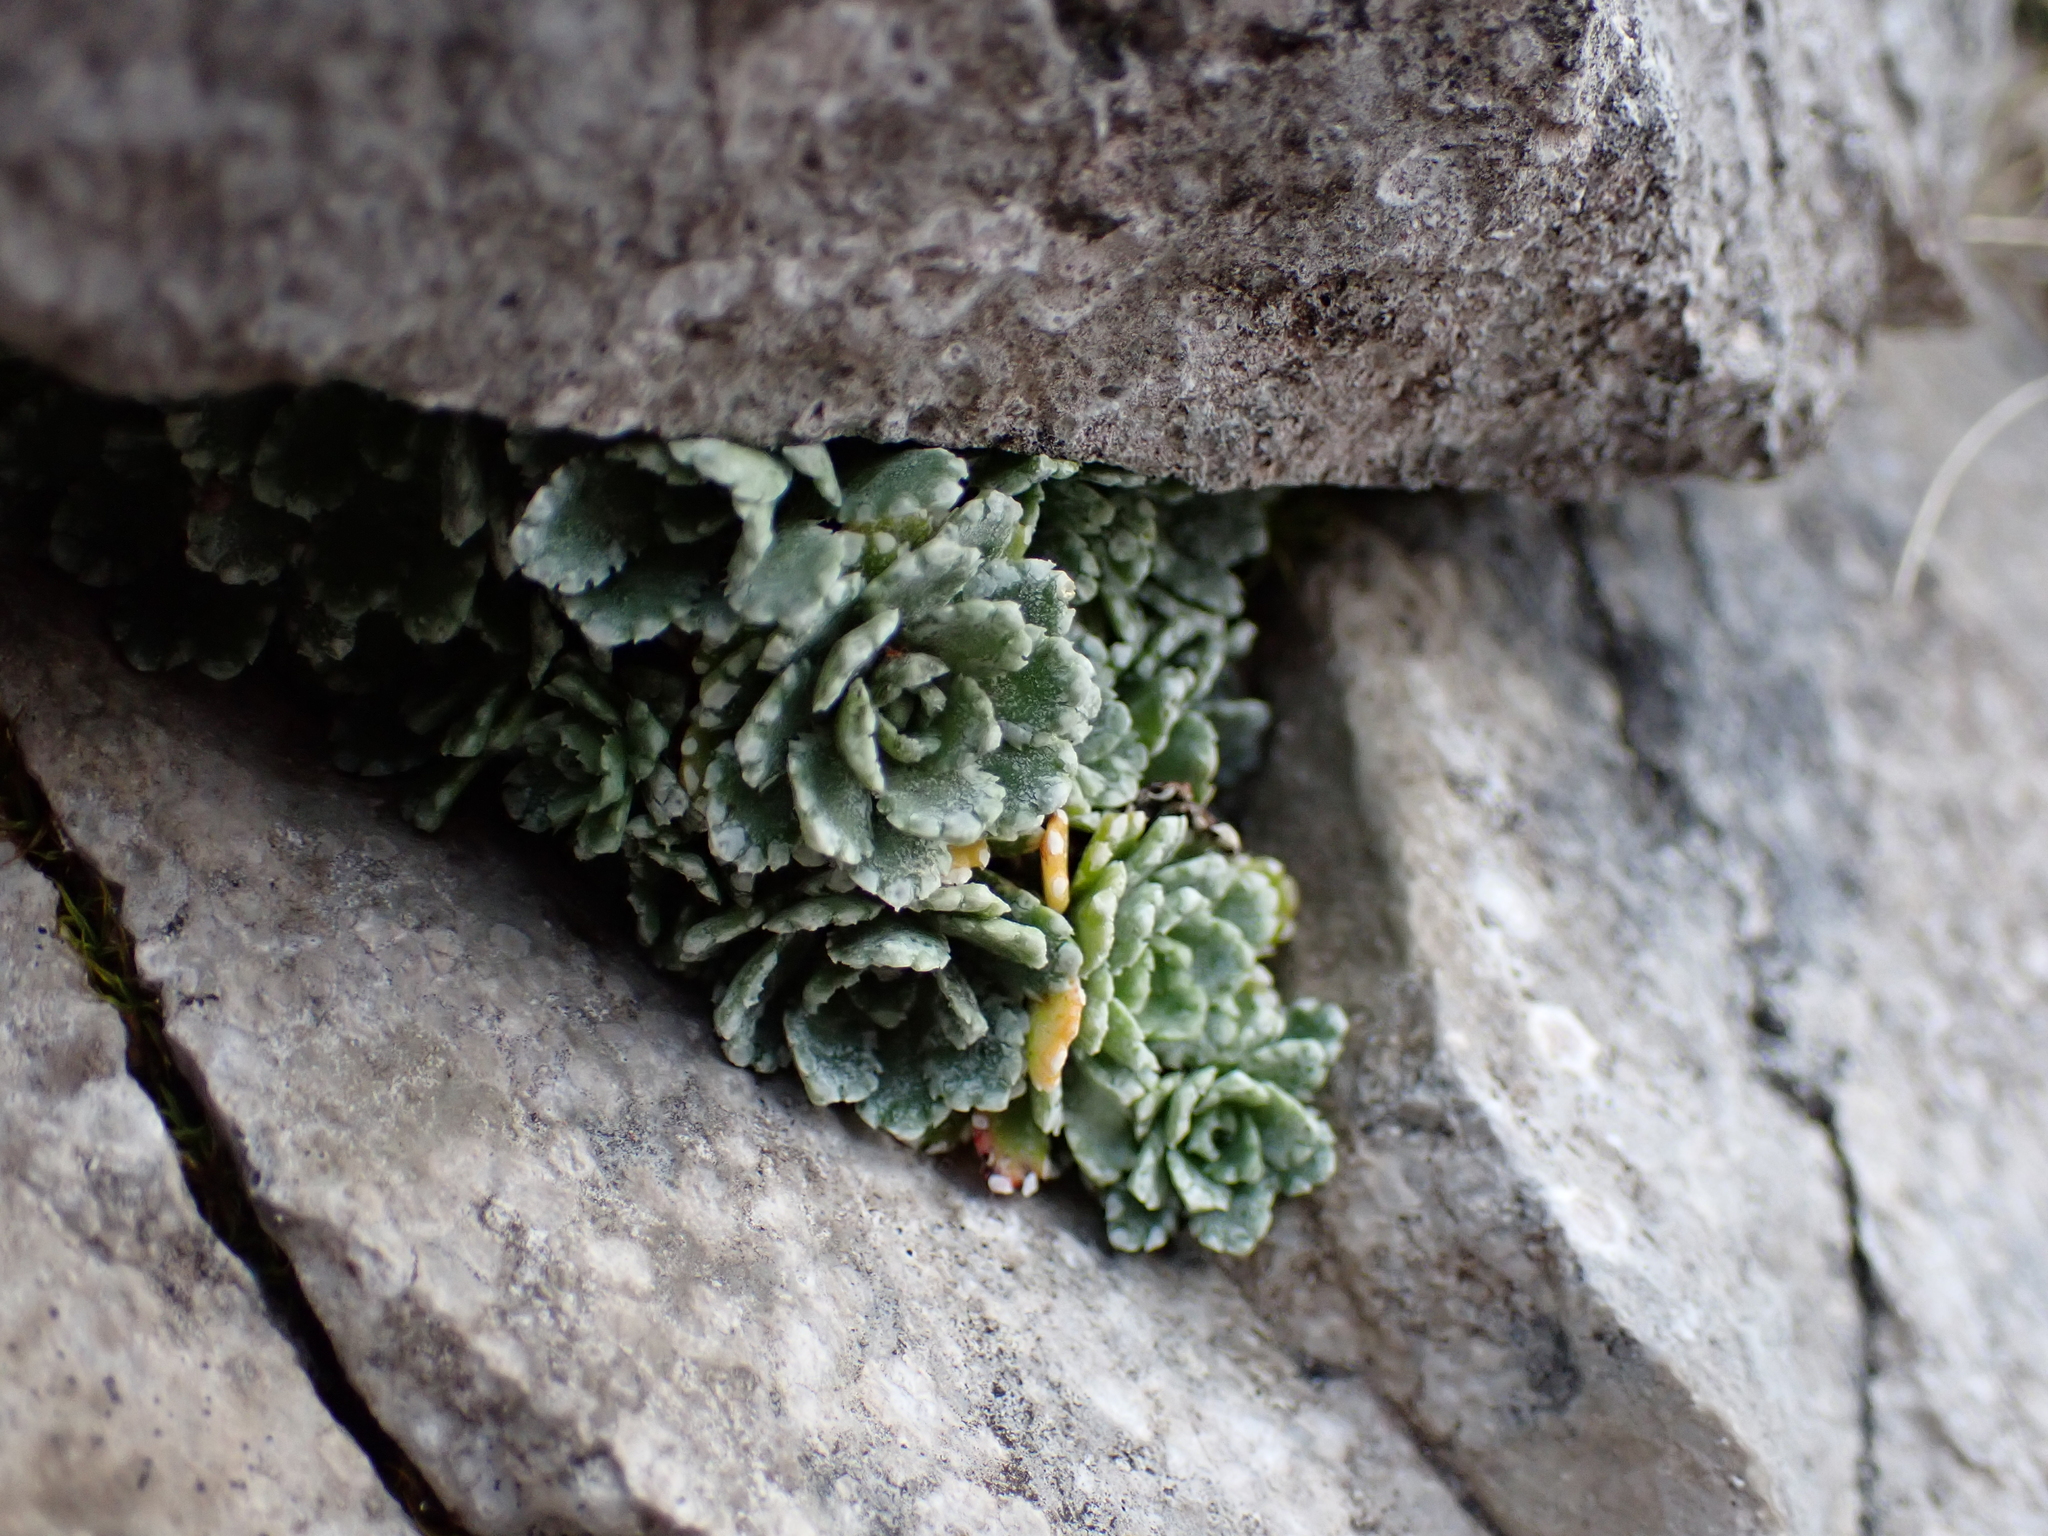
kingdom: Plantae
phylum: Tracheophyta
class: Magnoliopsida
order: Saxifragales
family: Saxifragaceae
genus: Saxifraga
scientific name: Saxifraga paniculata
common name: Livelong saxifrage
